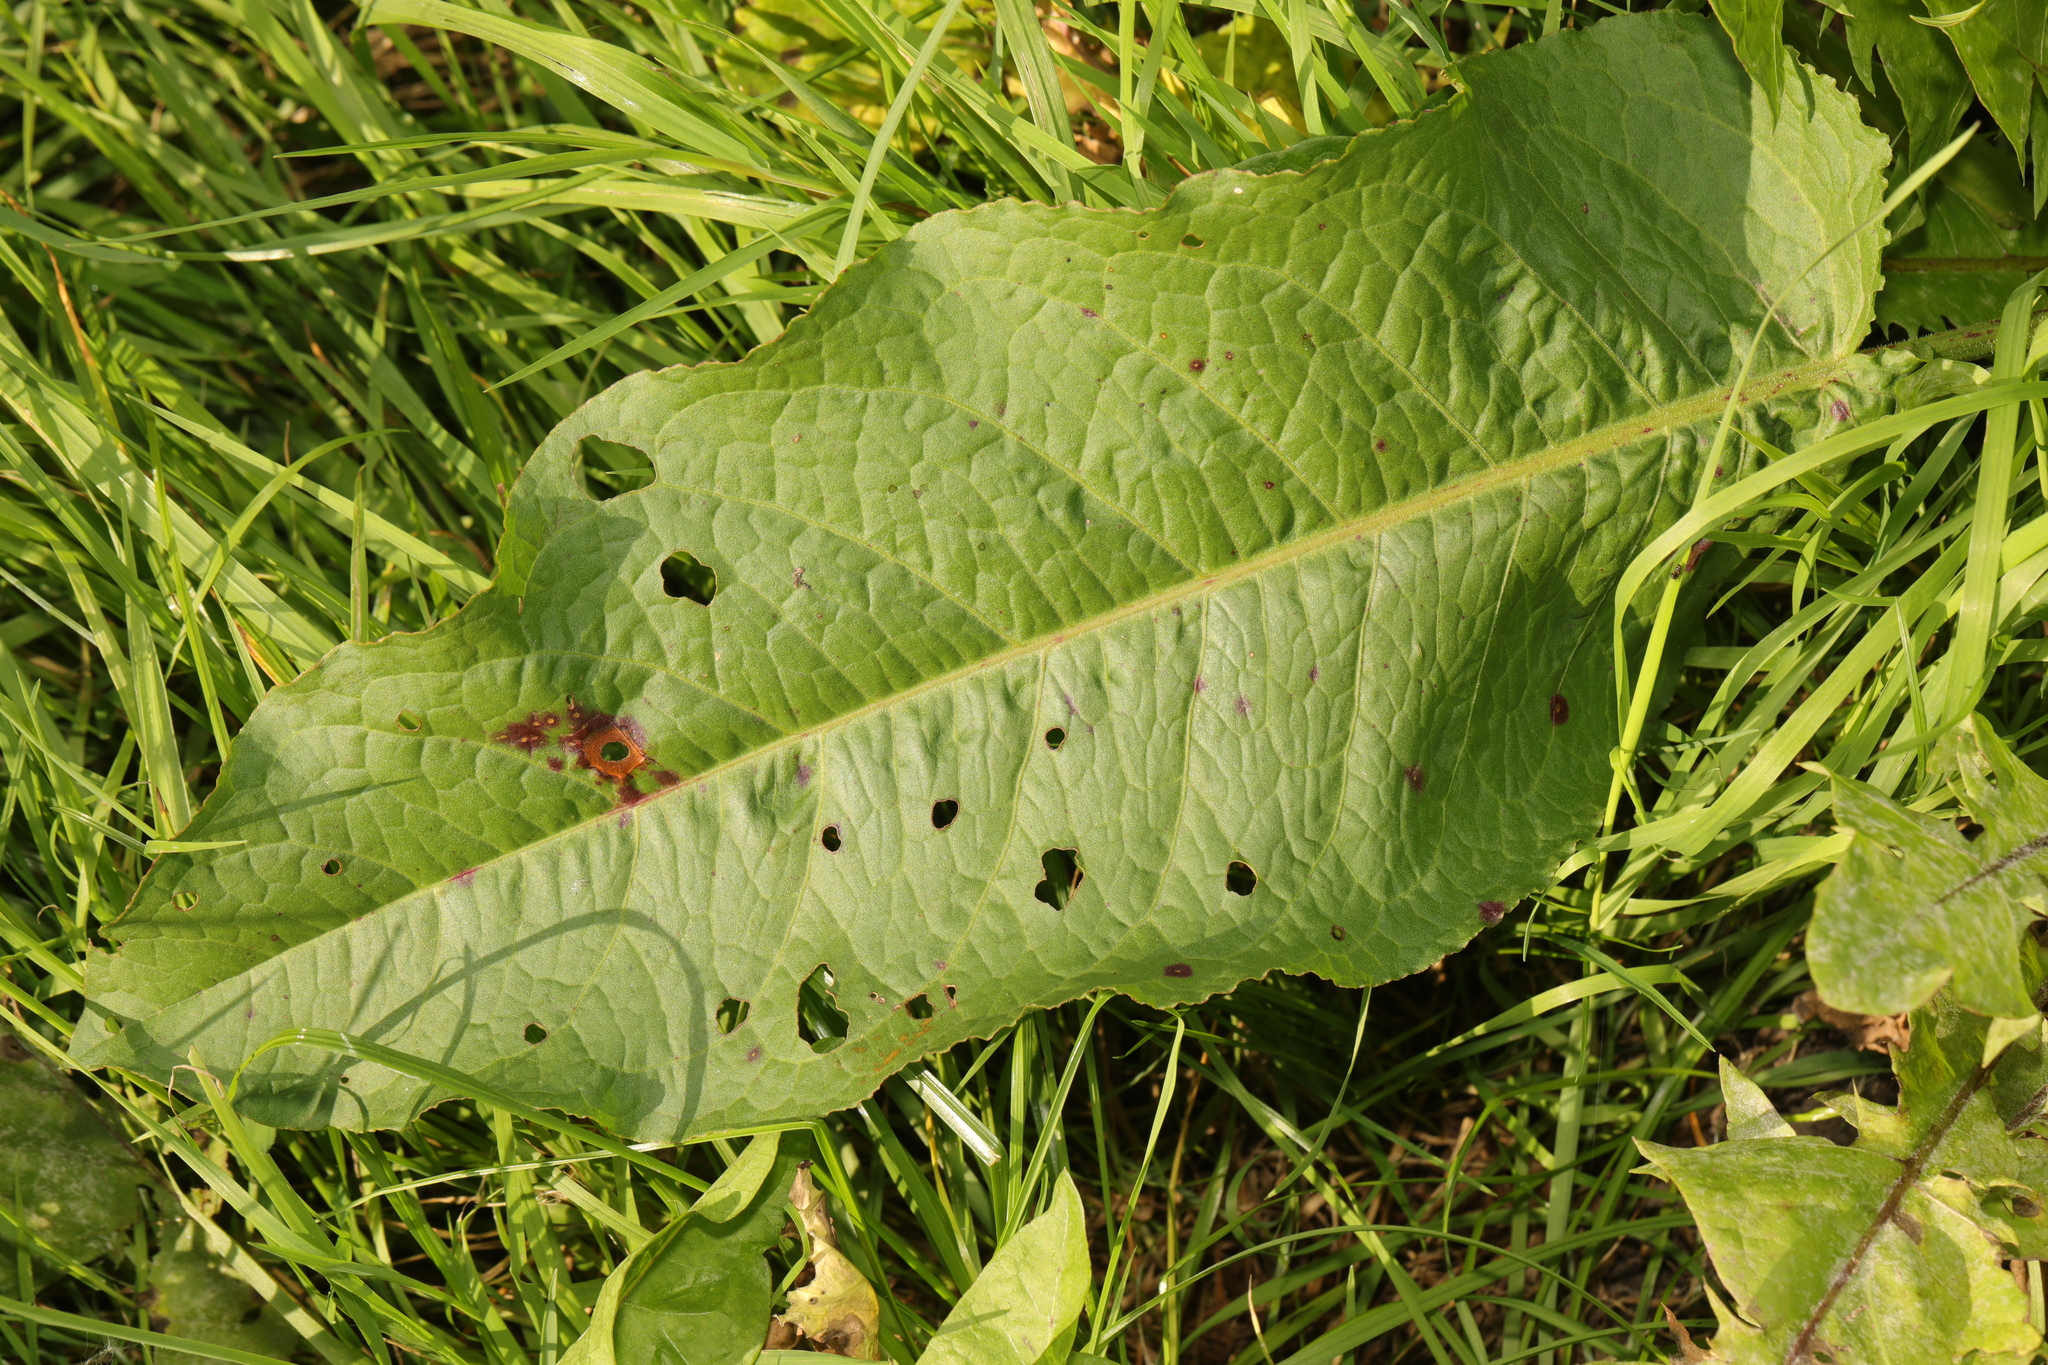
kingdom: Plantae
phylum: Tracheophyta
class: Magnoliopsida
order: Caryophyllales
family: Polygonaceae
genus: Rumex
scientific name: Rumex obtusifolius
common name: Bitter dock
